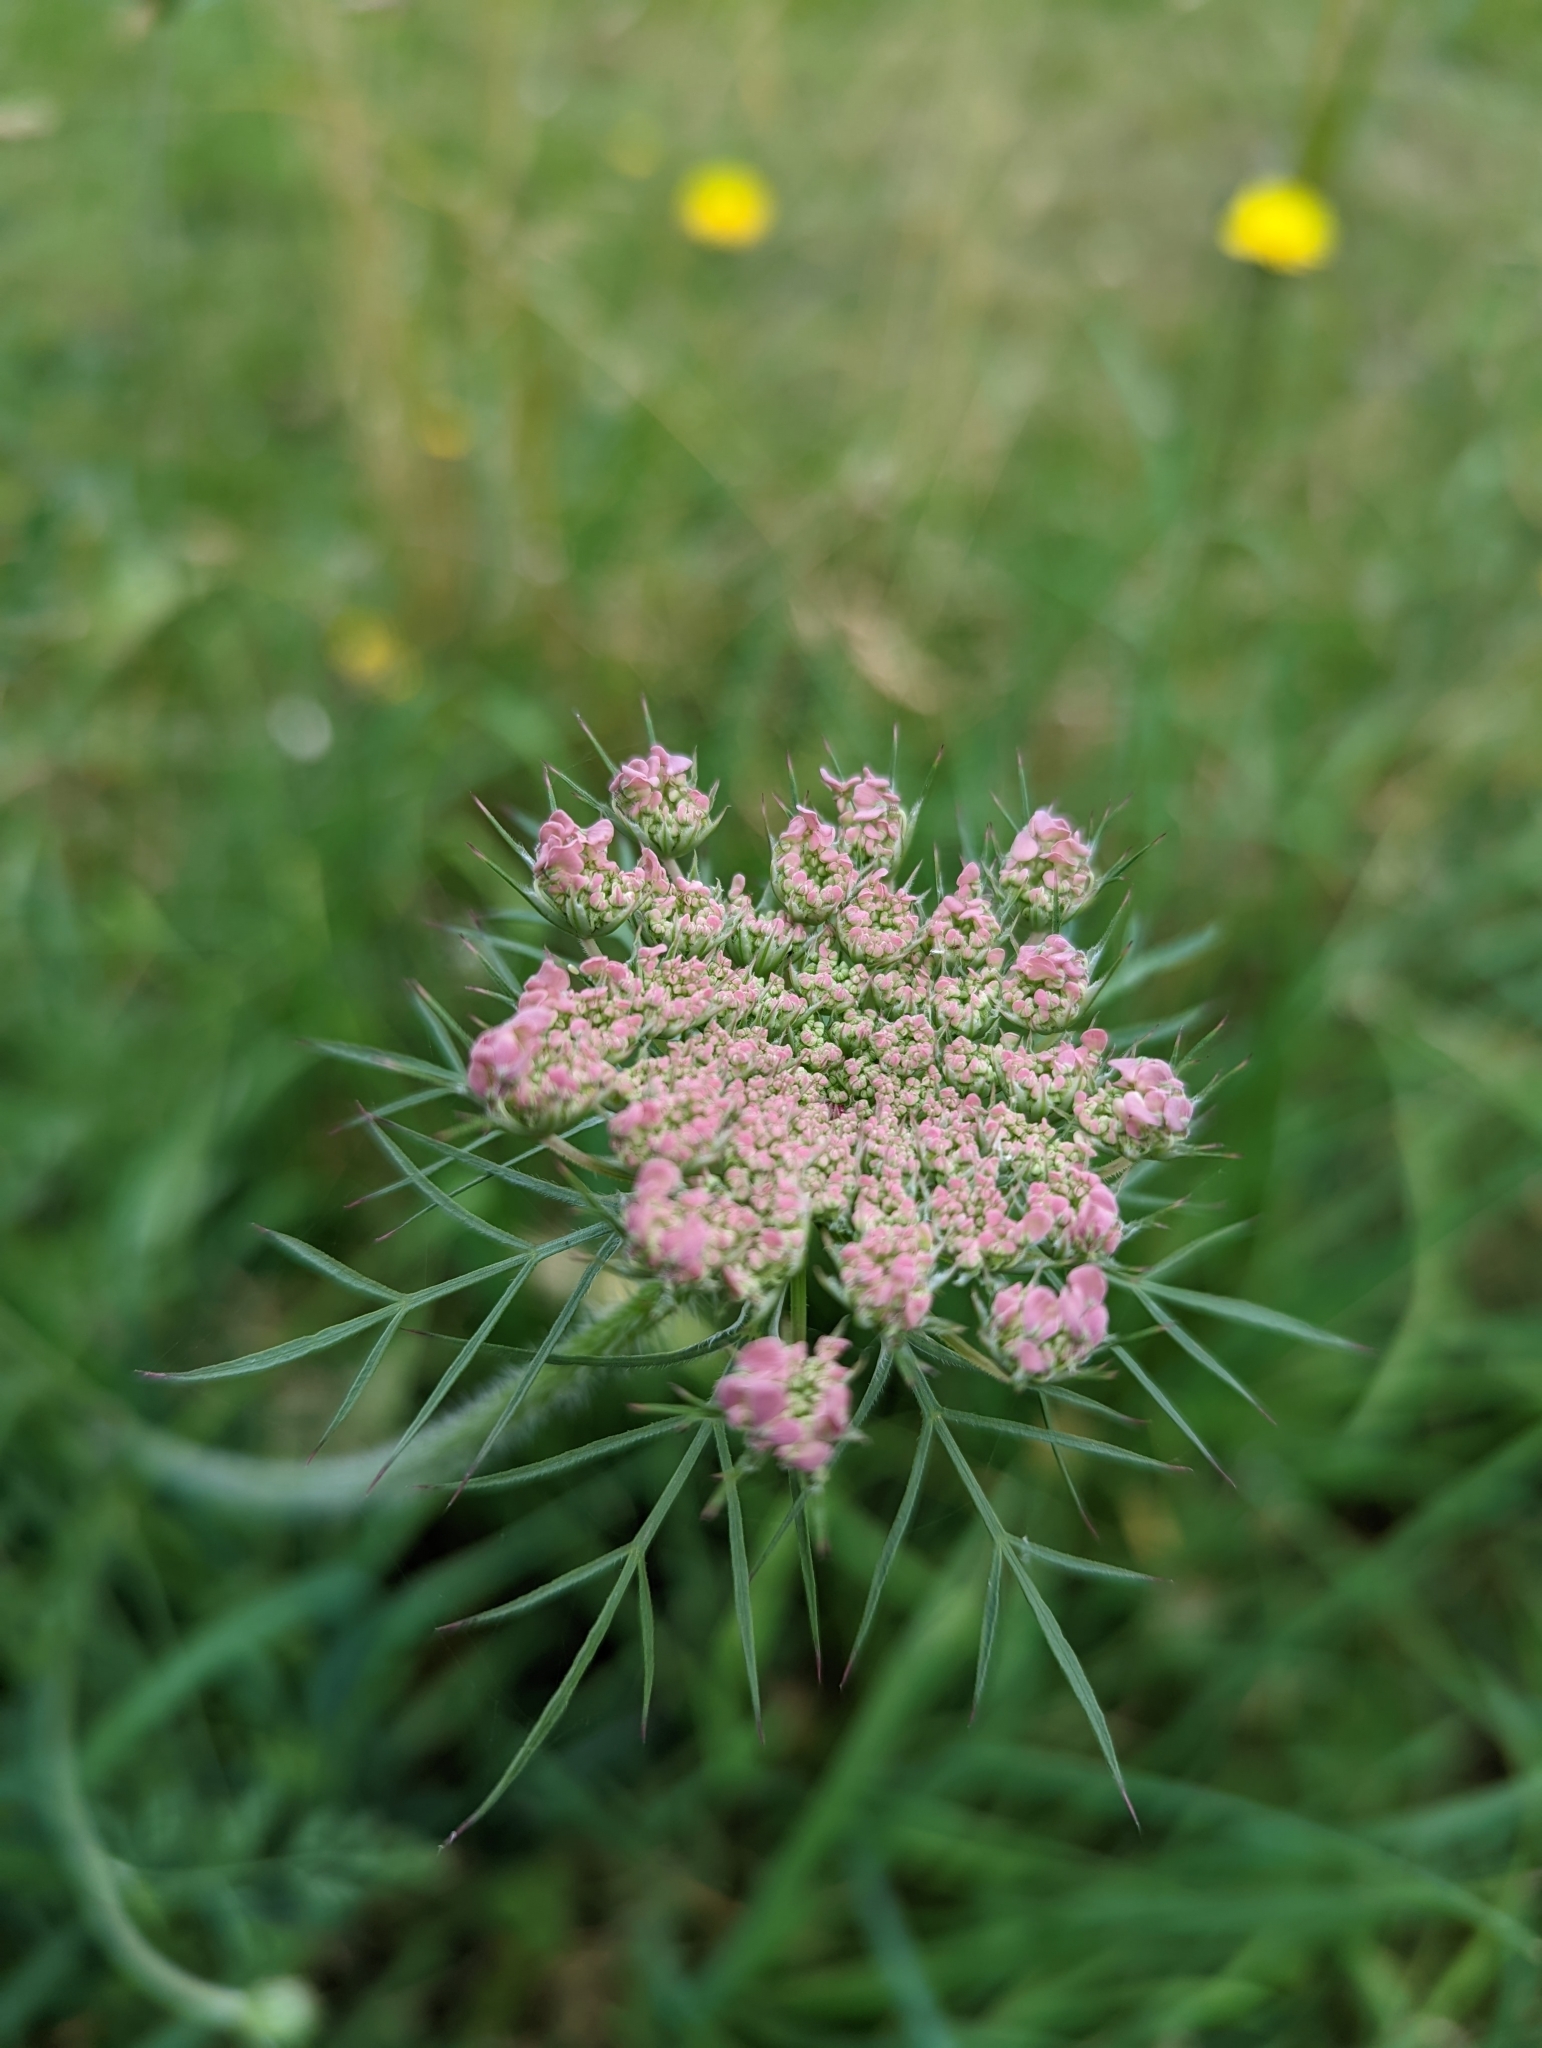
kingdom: Plantae
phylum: Tracheophyta
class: Magnoliopsida
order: Apiales
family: Apiaceae
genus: Daucus
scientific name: Daucus carota
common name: Wild carrot
